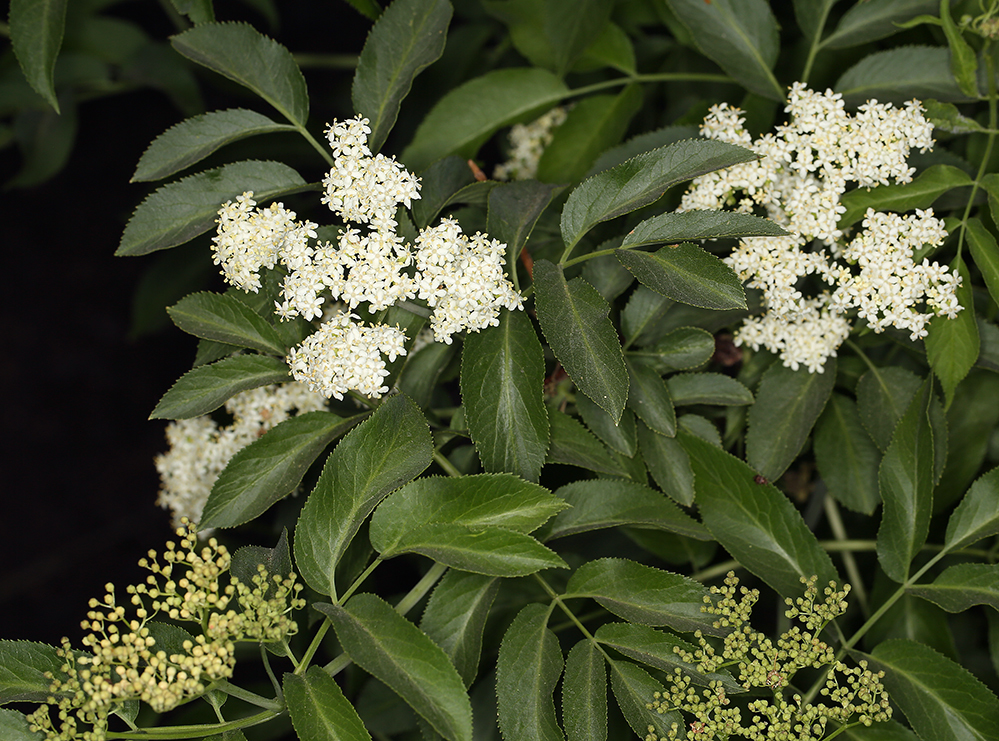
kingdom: Plantae
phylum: Tracheophyta
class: Magnoliopsida
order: Dipsacales
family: Viburnaceae
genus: Sambucus
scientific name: Sambucus cerulea
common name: Blue elder
